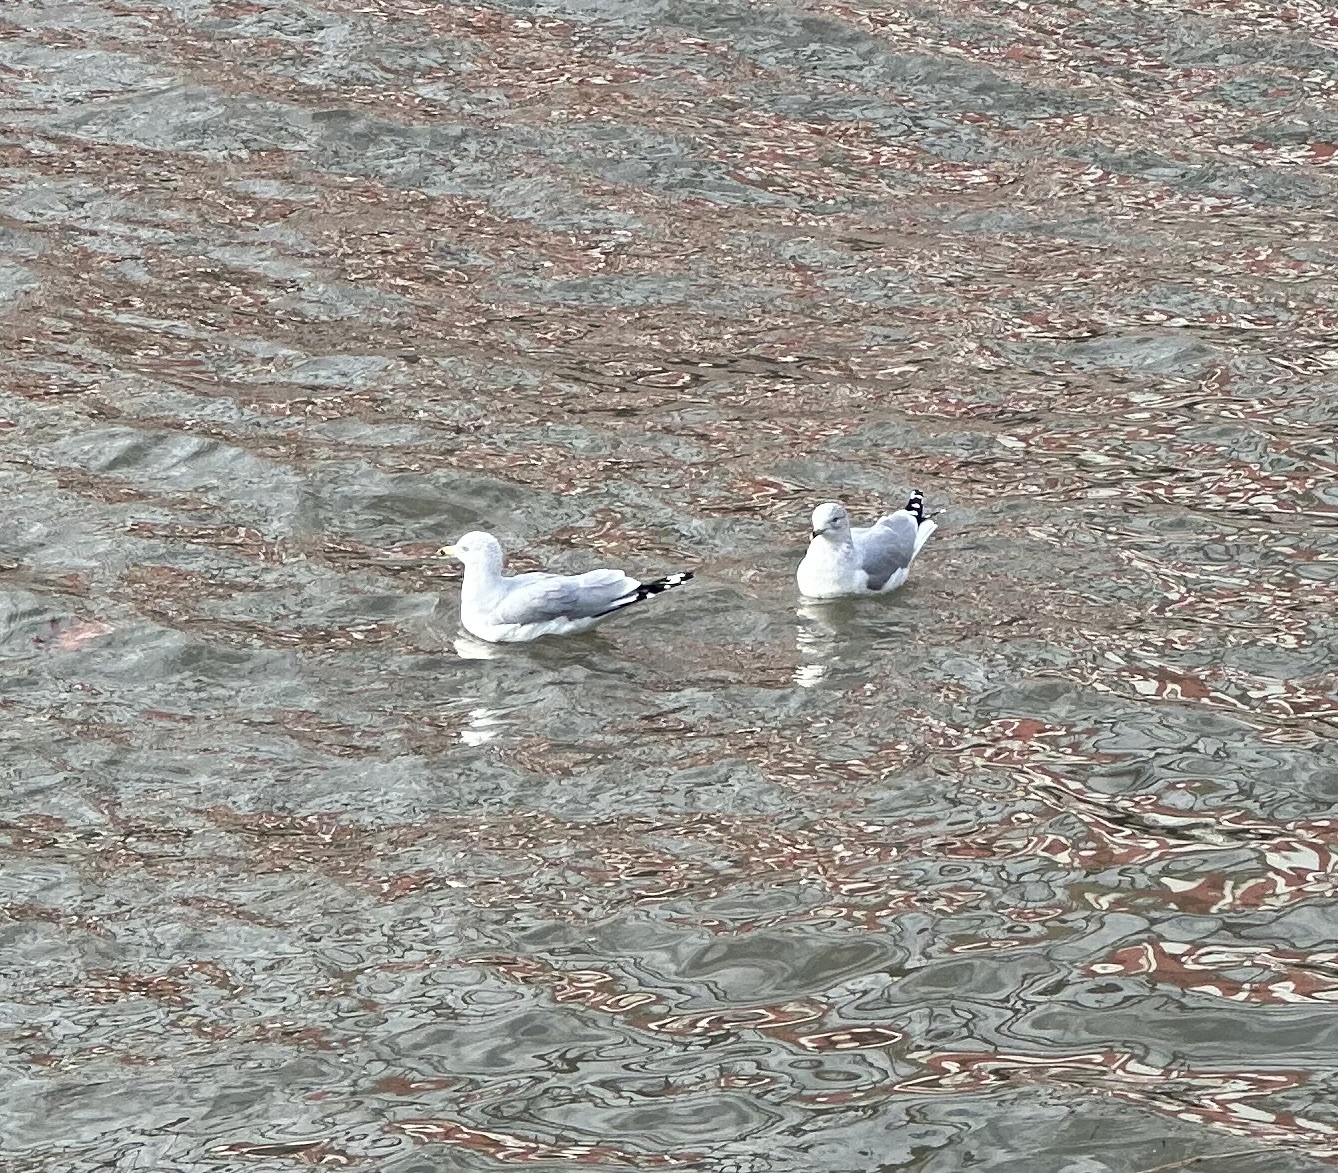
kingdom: Animalia
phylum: Chordata
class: Aves
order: Charadriiformes
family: Laridae
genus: Larus
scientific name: Larus delawarensis
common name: Ring-billed gull
